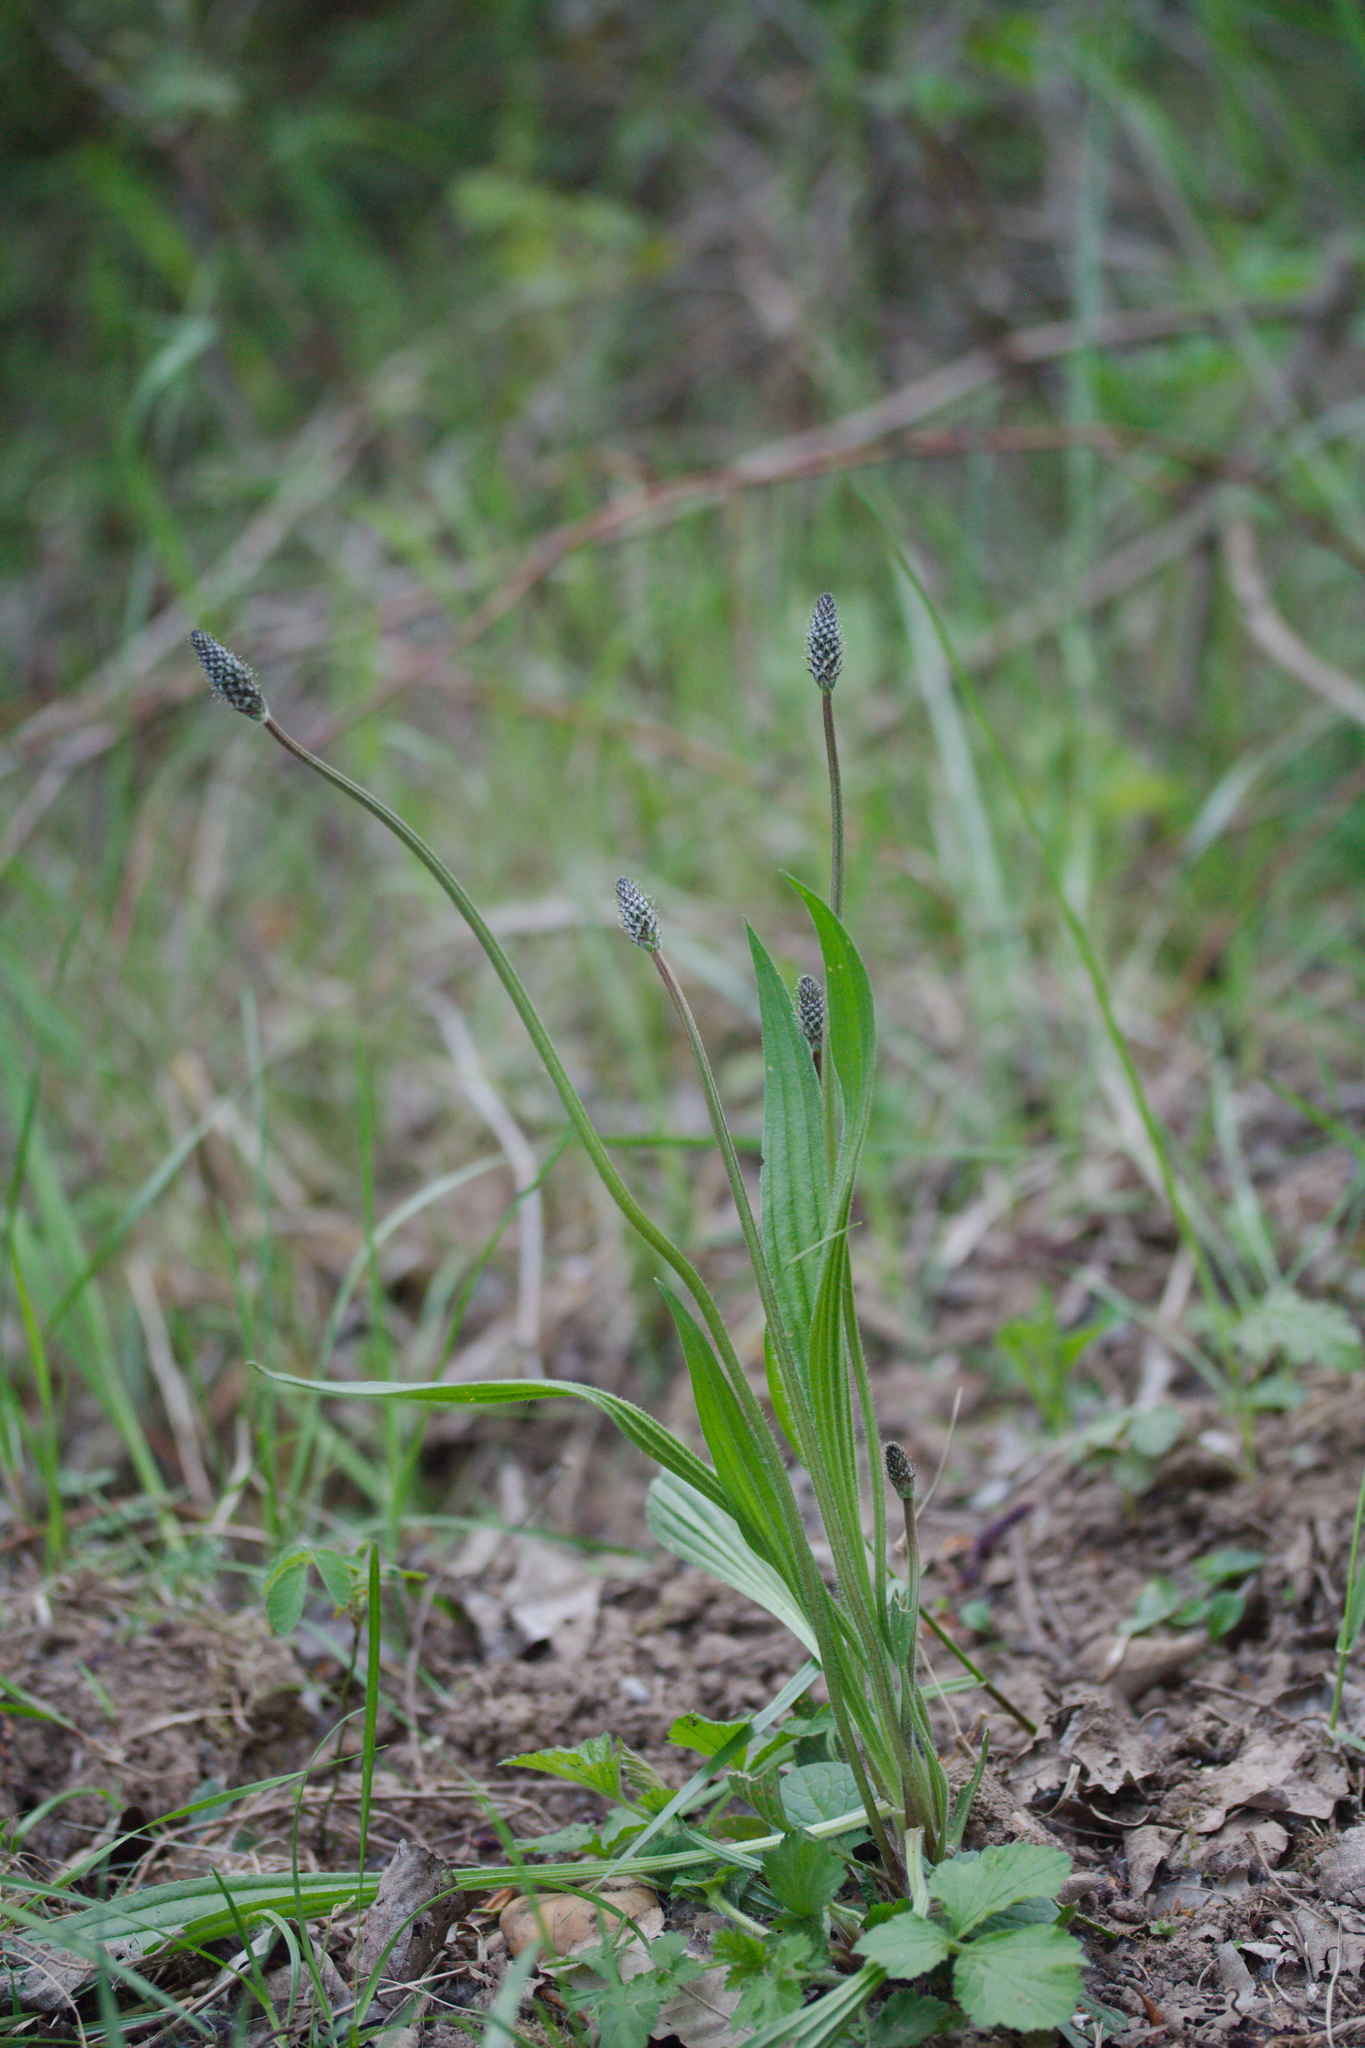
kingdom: Plantae
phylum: Tracheophyta
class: Magnoliopsida
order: Lamiales
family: Plantaginaceae
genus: Plantago
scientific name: Plantago lanceolata
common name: Ribwort plantain
